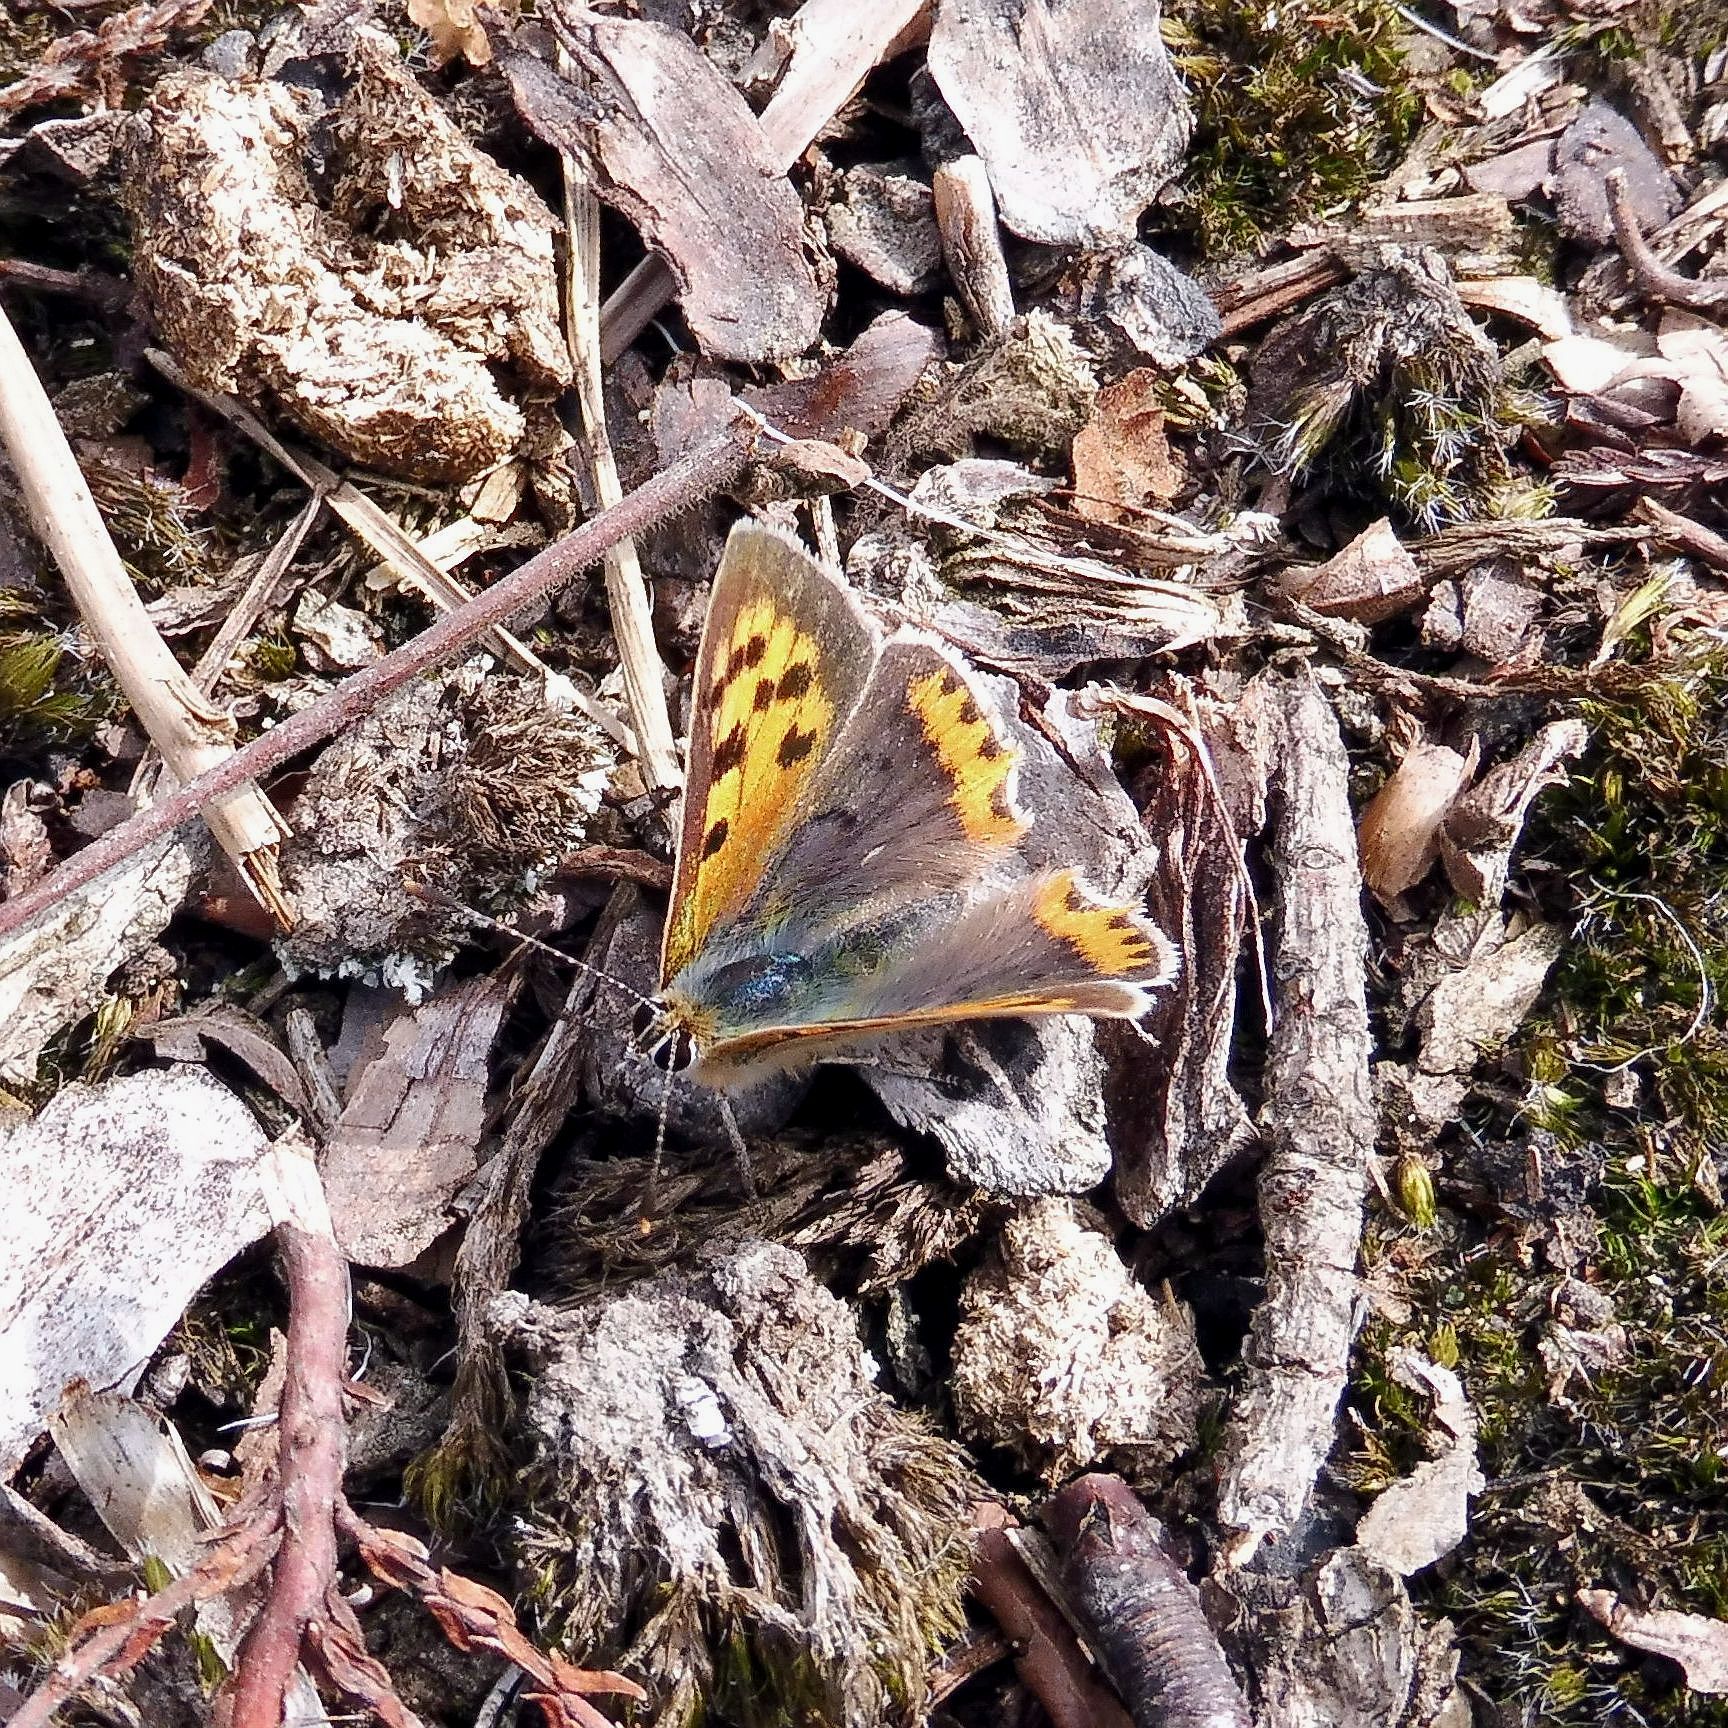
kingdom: Animalia
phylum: Arthropoda
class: Insecta
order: Lepidoptera
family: Lycaenidae
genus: Lycaena
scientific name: Lycaena phlaeas
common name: Small copper
